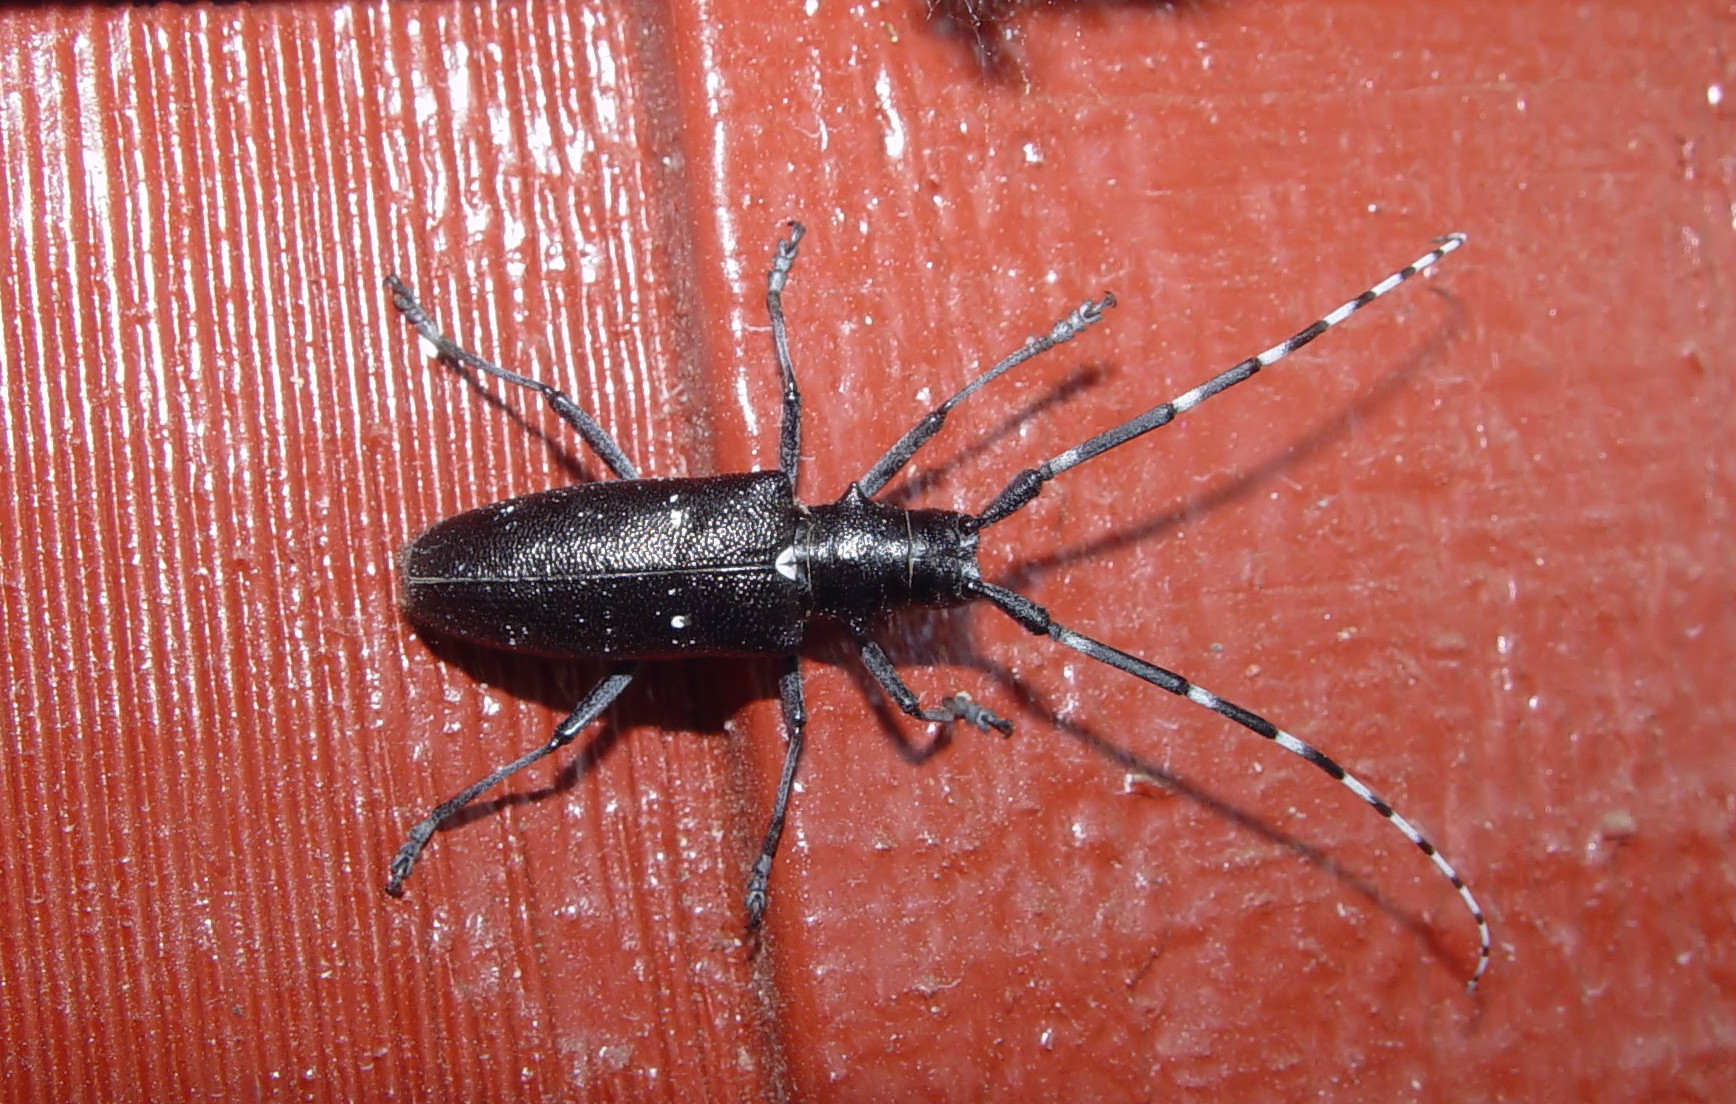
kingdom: Animalia
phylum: Arthropoda
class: Insecta
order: Coleoptera
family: Cerambycidae
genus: Monochamus
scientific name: Monochamus scutellatus
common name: White-spotted sawyer beetle
